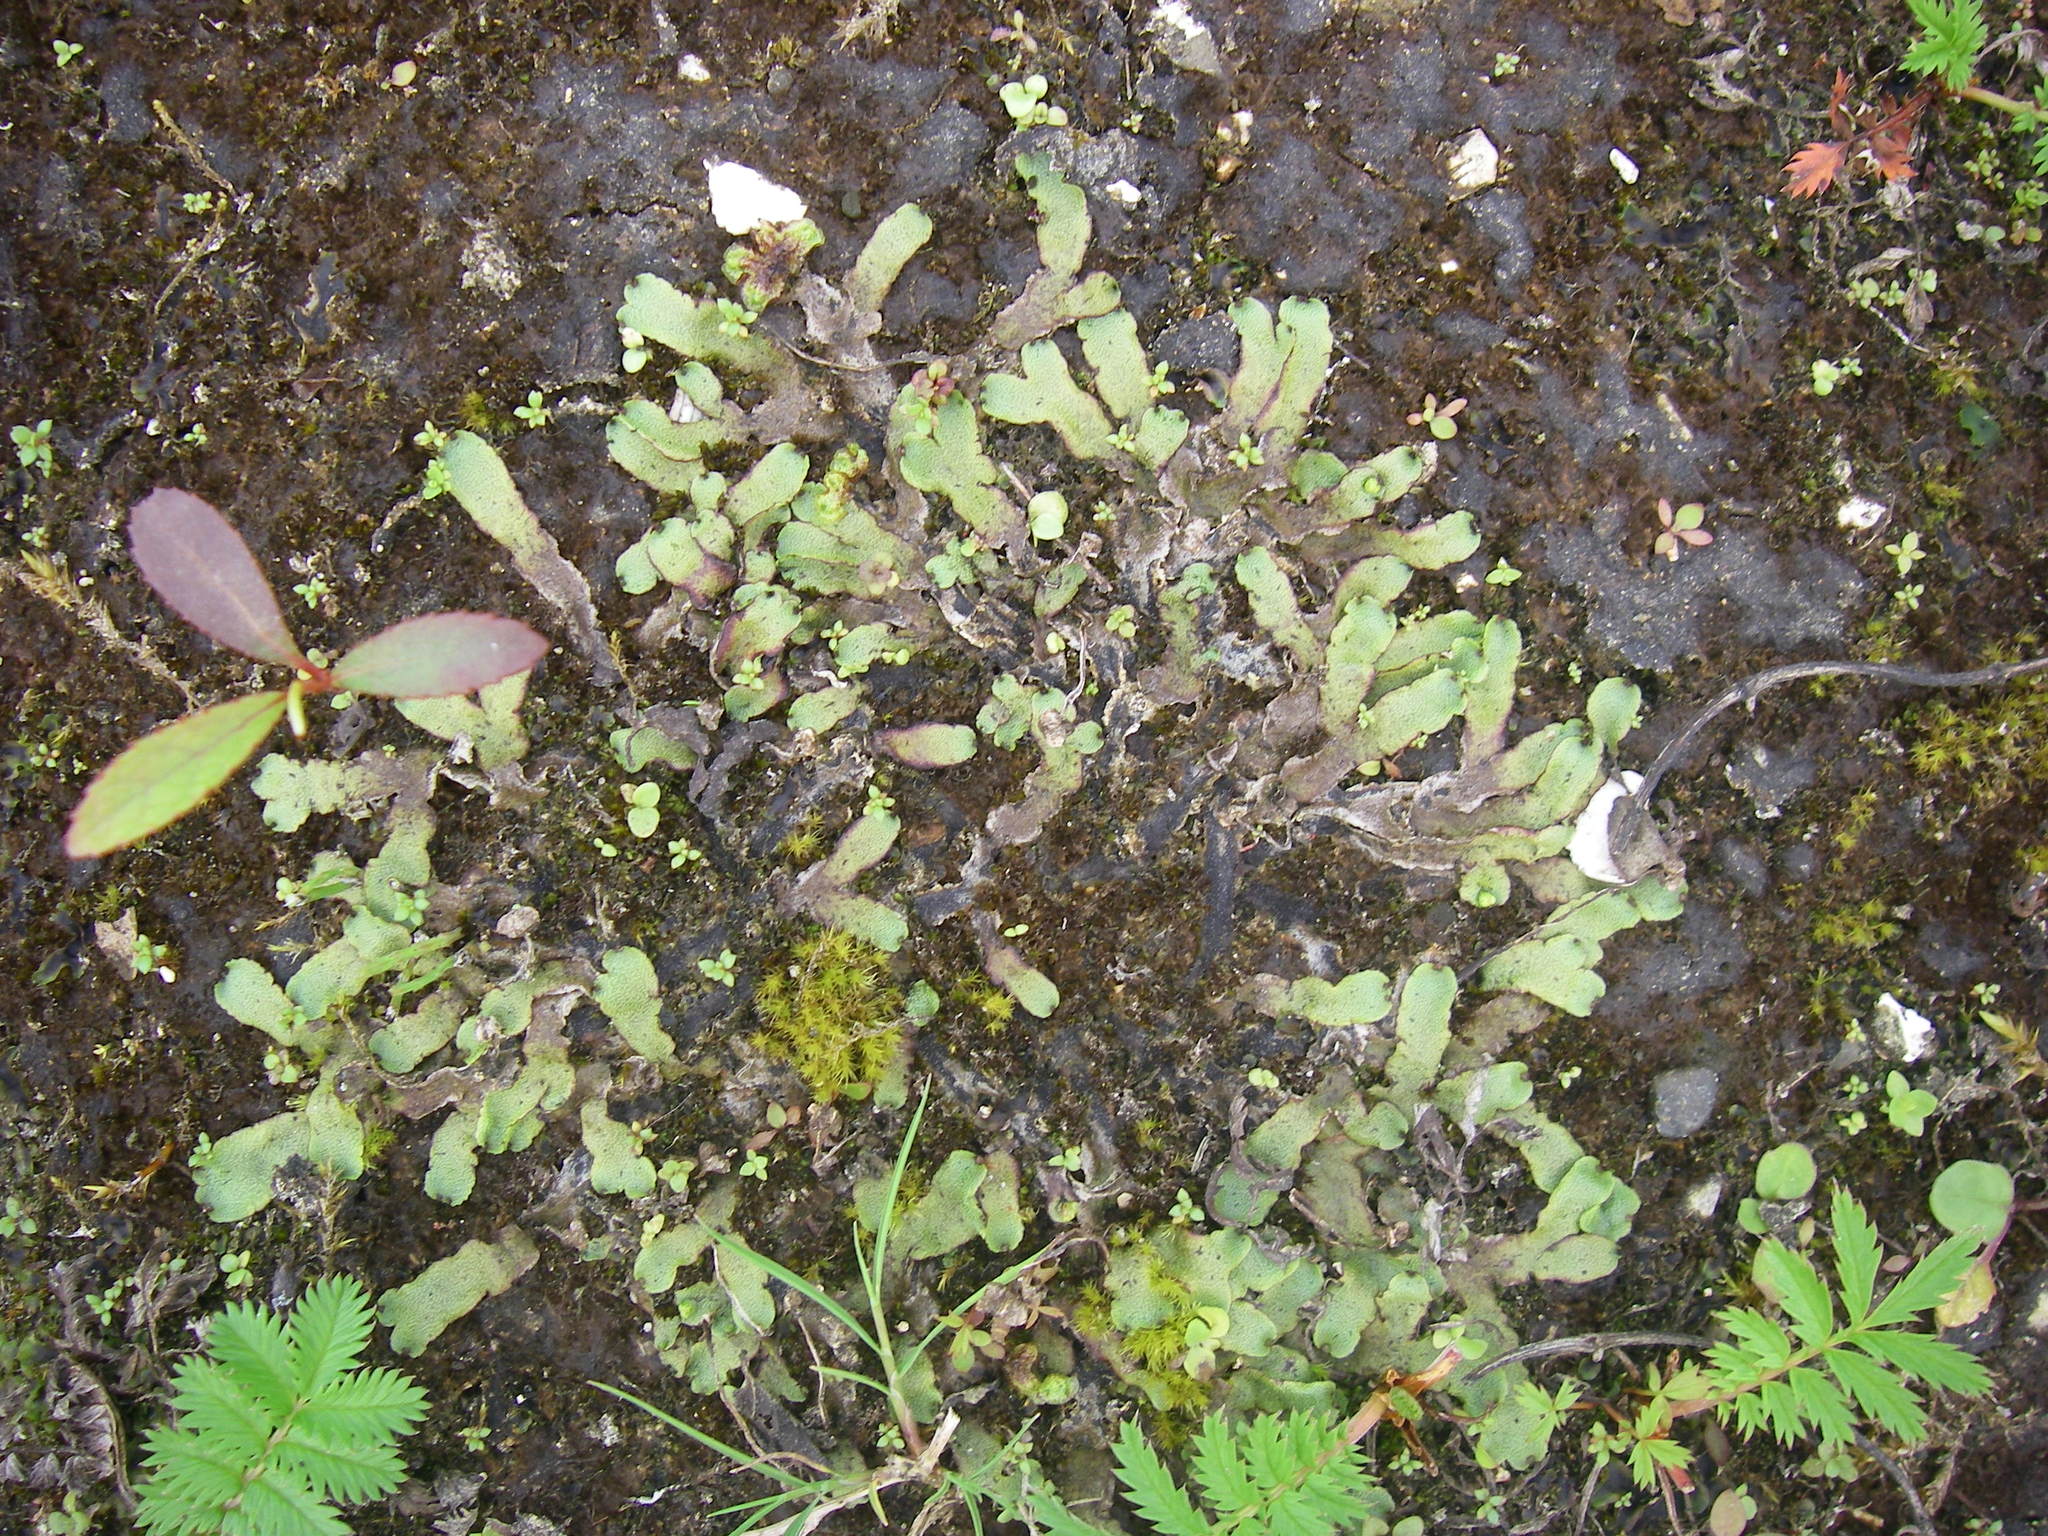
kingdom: Plantae
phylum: Marchantiophyta
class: Marchantiopsida
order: Marchantiales
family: Marchantiaceae
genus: Marchantia
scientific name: Marchantia quadrata
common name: Narrow mushroom-headed liverwort
